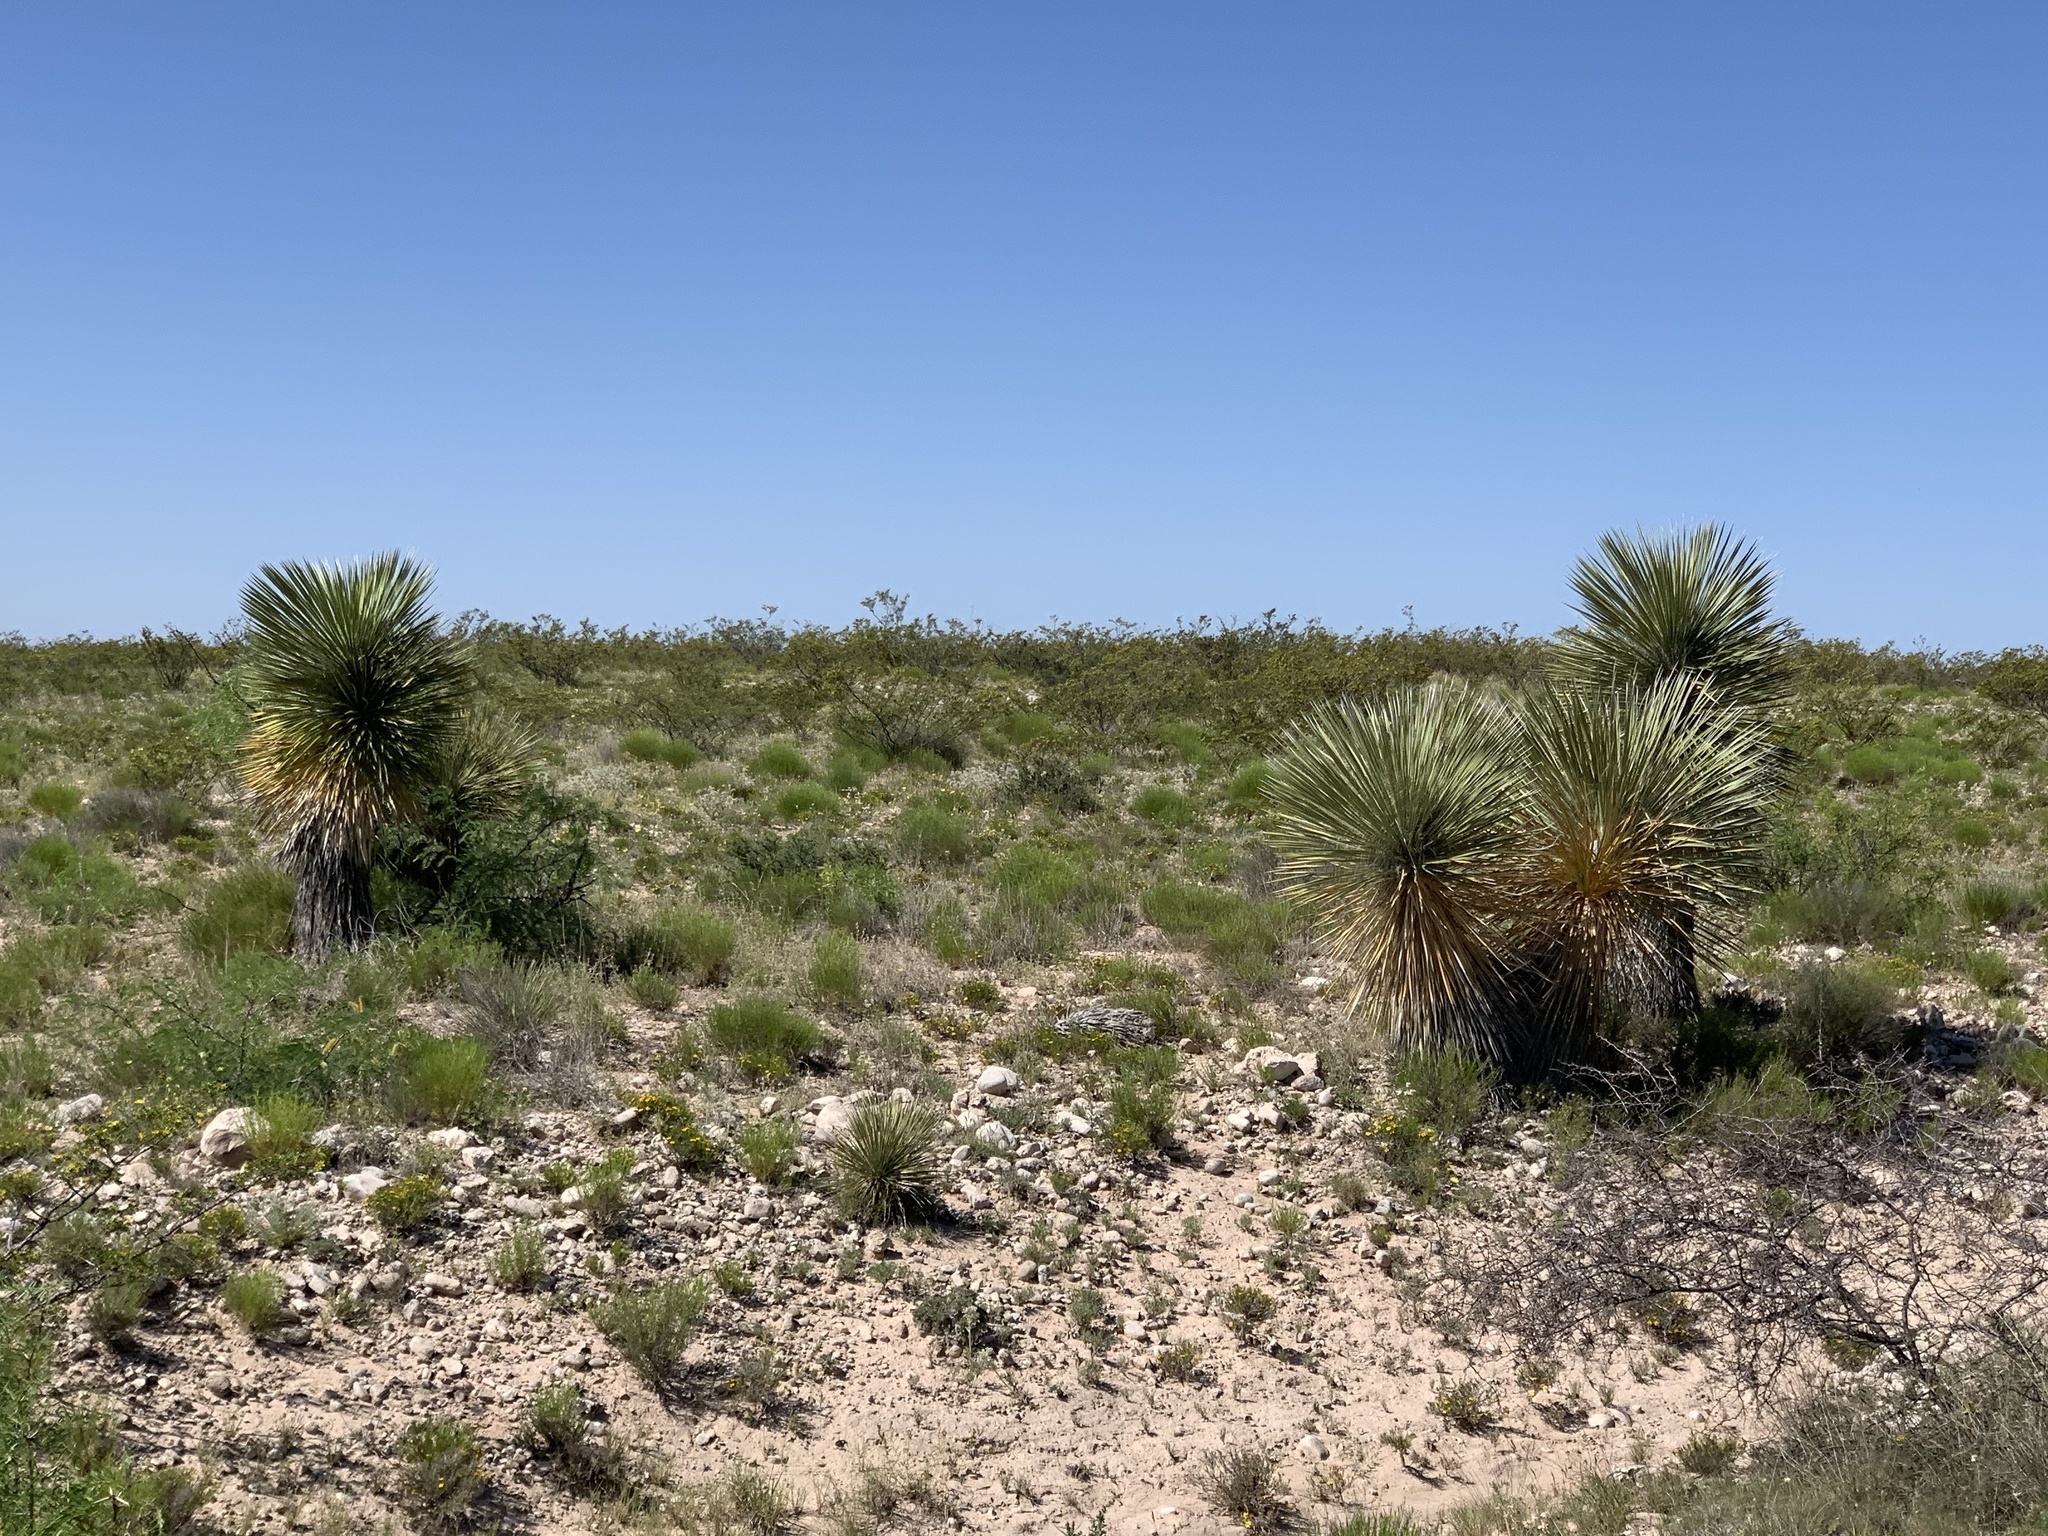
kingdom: Plantae
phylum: Tracheophyta
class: Liliopsida
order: Asparagales
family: Asparagaceae
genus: Yucca
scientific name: Yucca elata
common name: Palmella
